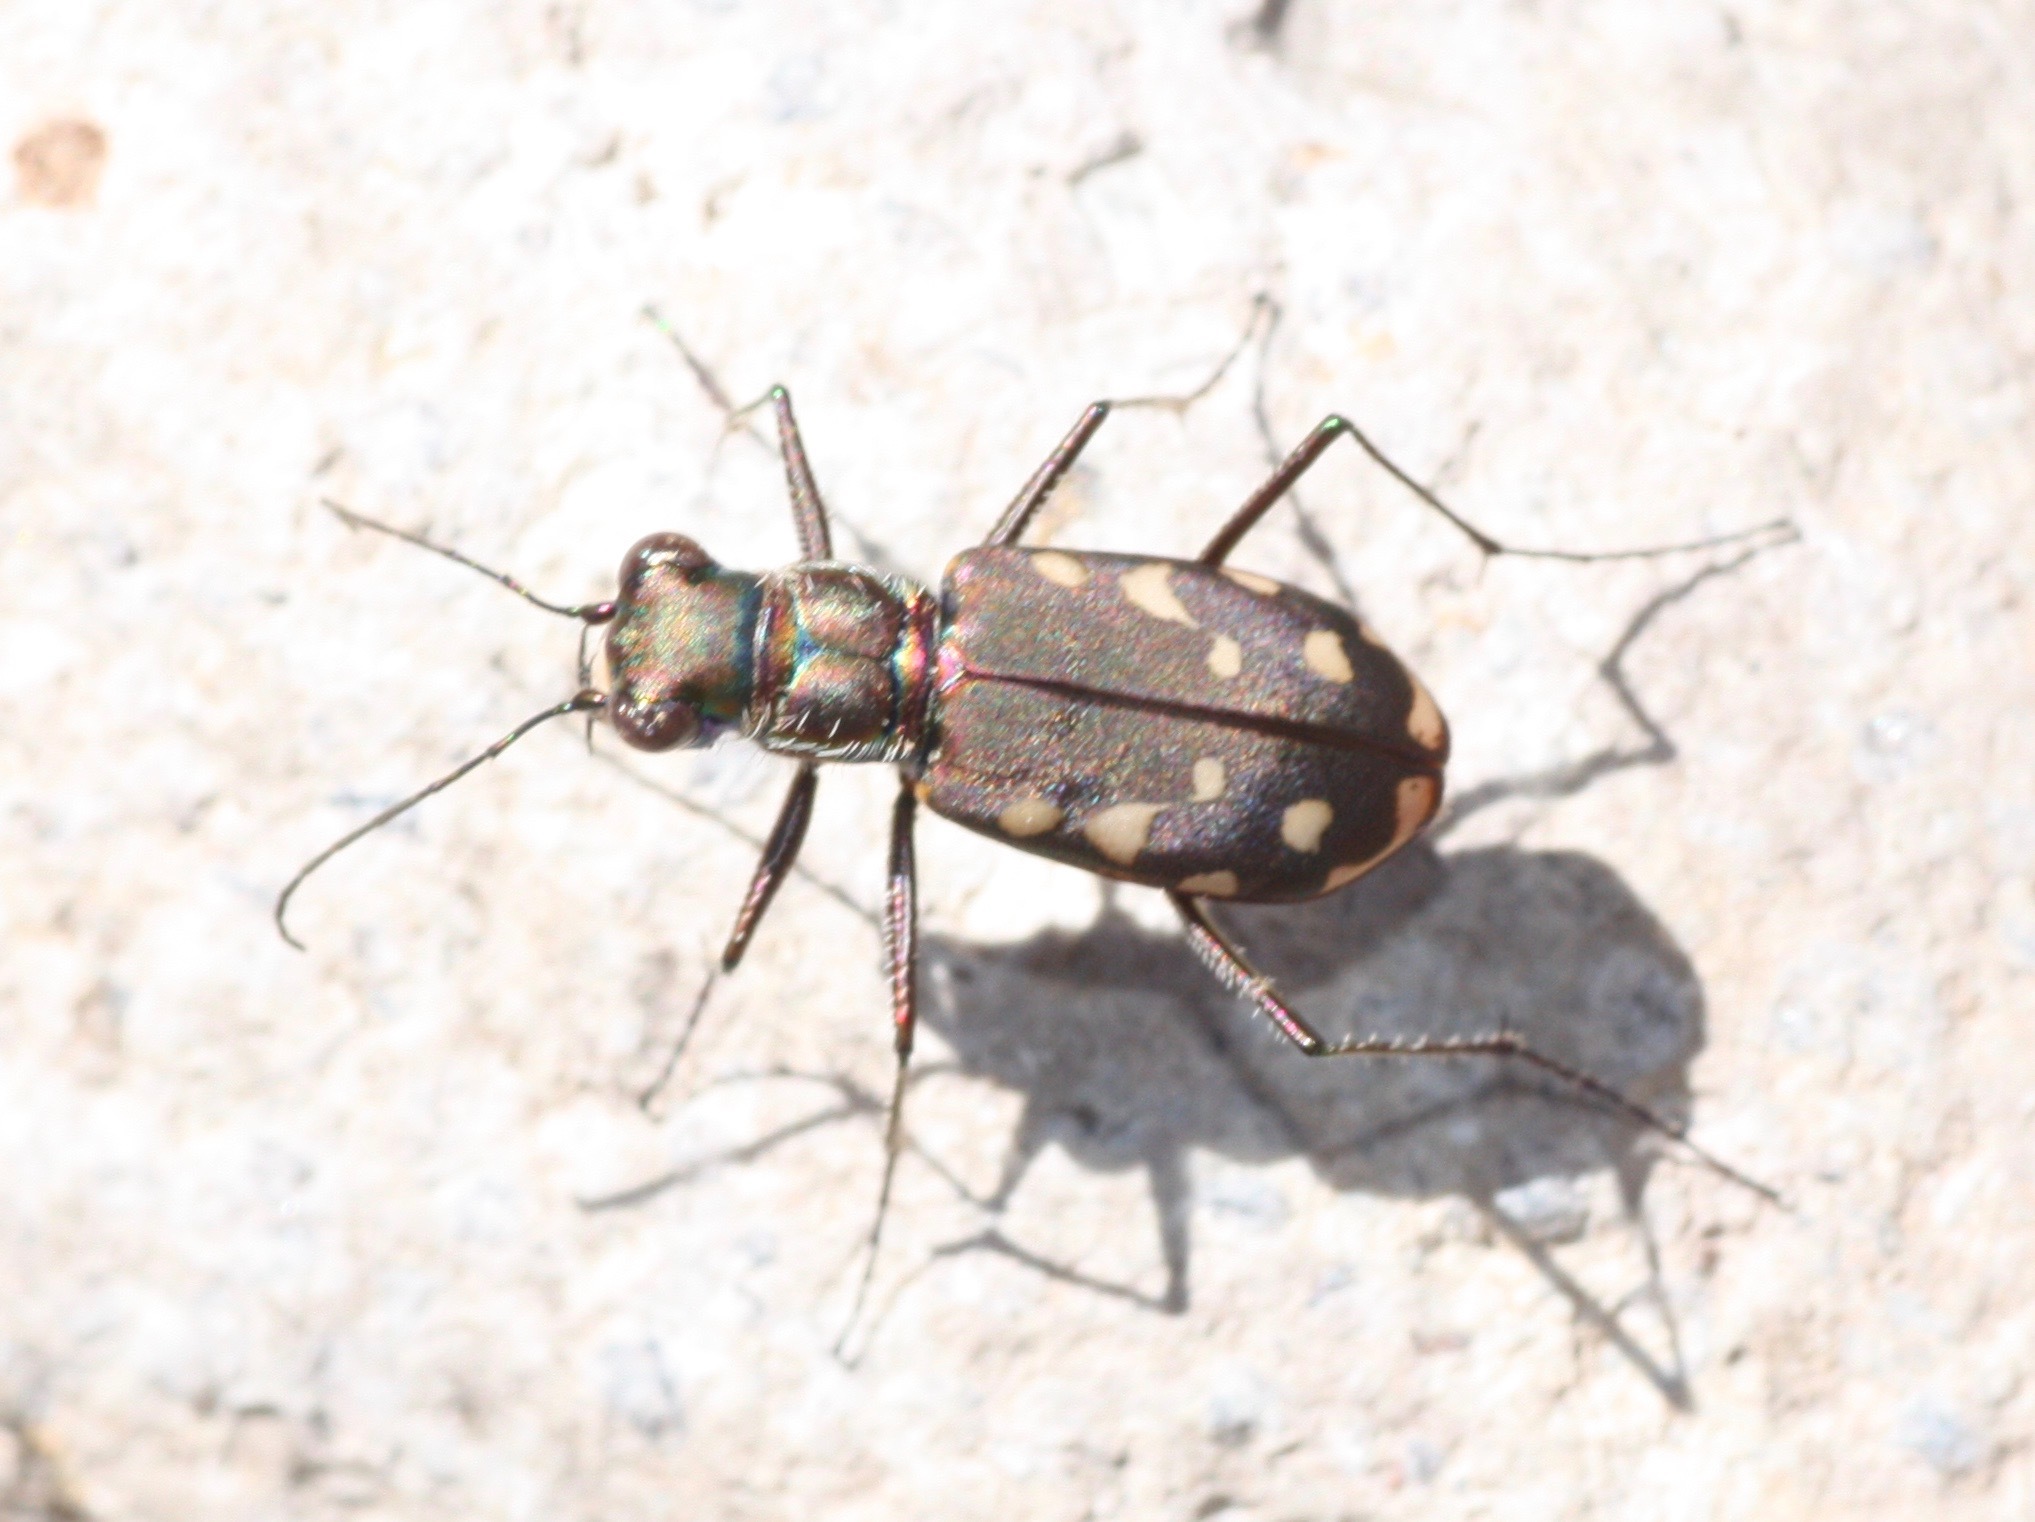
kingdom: Animalia
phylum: Arthropoda
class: Insecta
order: Coleoptera
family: Carabidae
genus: Cicindela
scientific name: Cicindela sedecimpunctata
